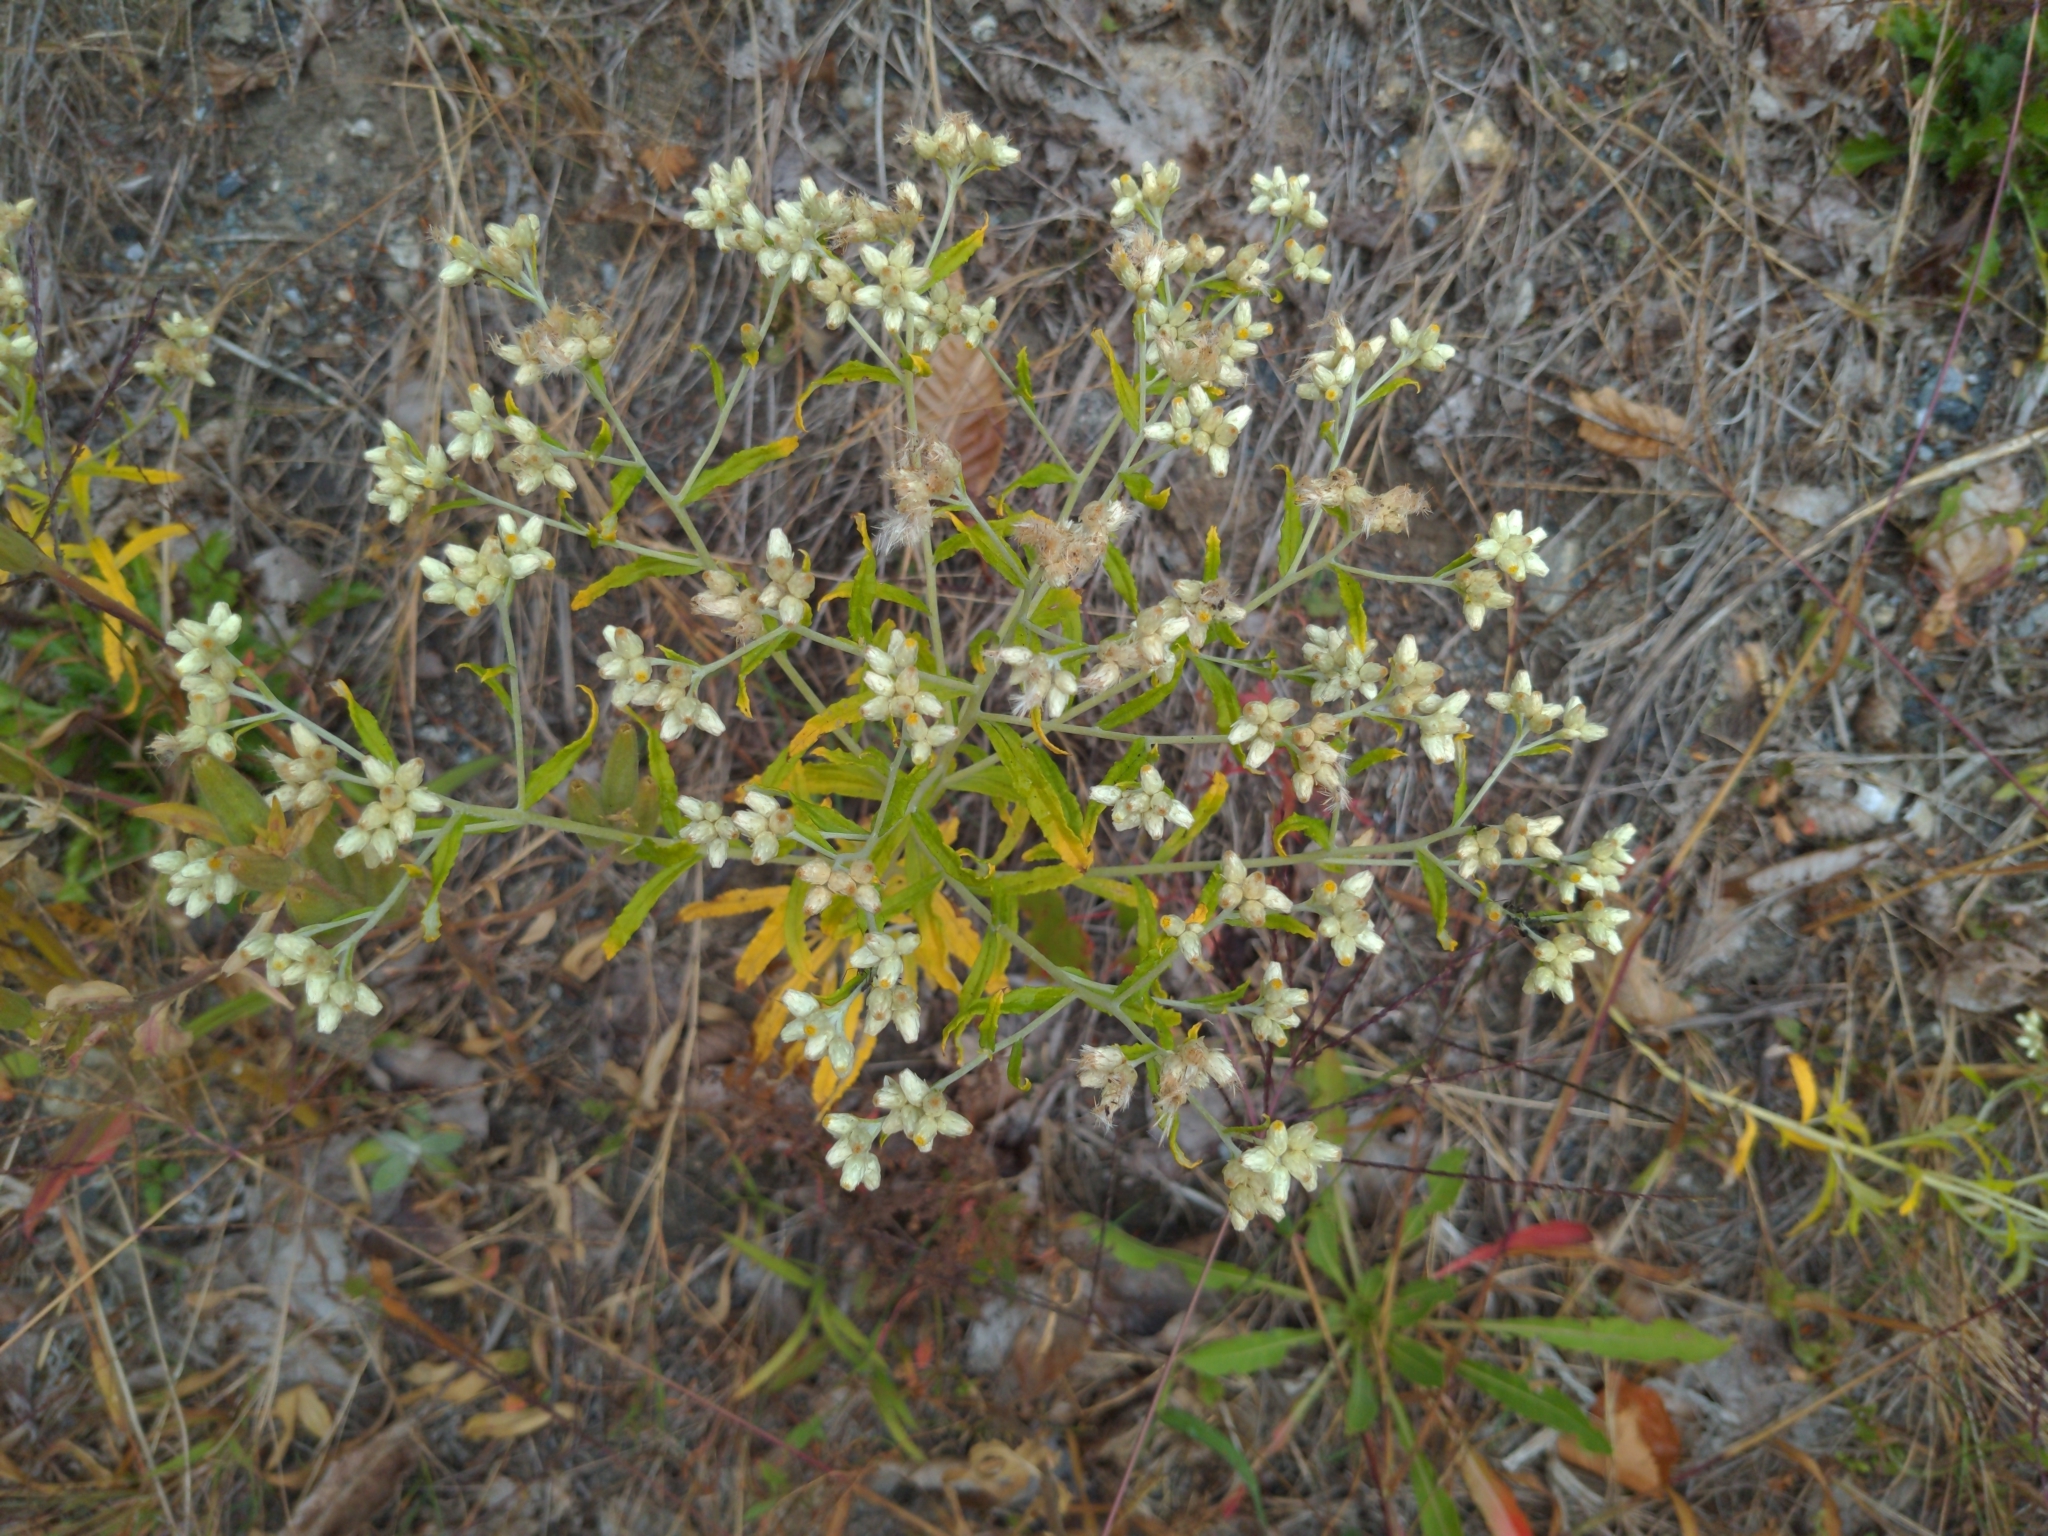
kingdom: Plantae
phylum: Tracheophyta
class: Magnoliopsida
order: Asterales
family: Asteraceae
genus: Pseudognaphalium
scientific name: Pseudognaphalium obtusifolium
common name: Eastern rabbit-tobacco
